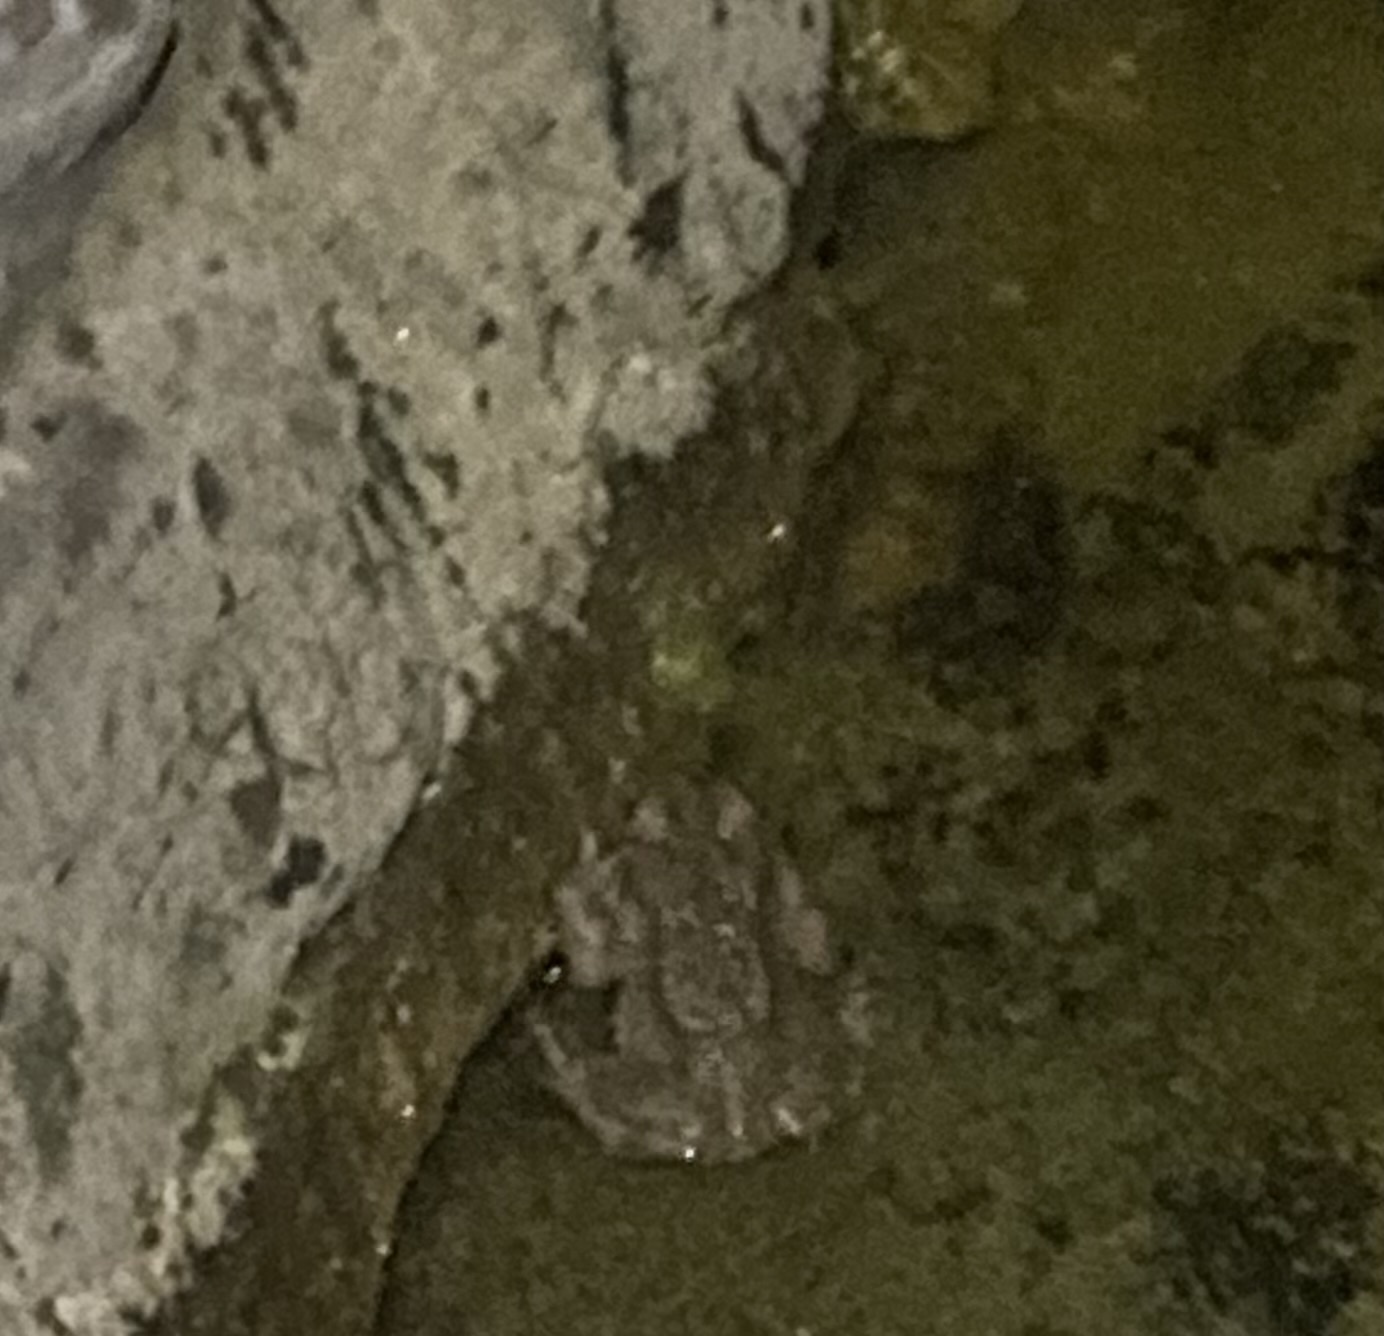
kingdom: Animalia
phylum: Chordata
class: Amphibia
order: Anura
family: Bufonidae
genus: Bufotes
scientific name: Bufotes viridis
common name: European green toad
